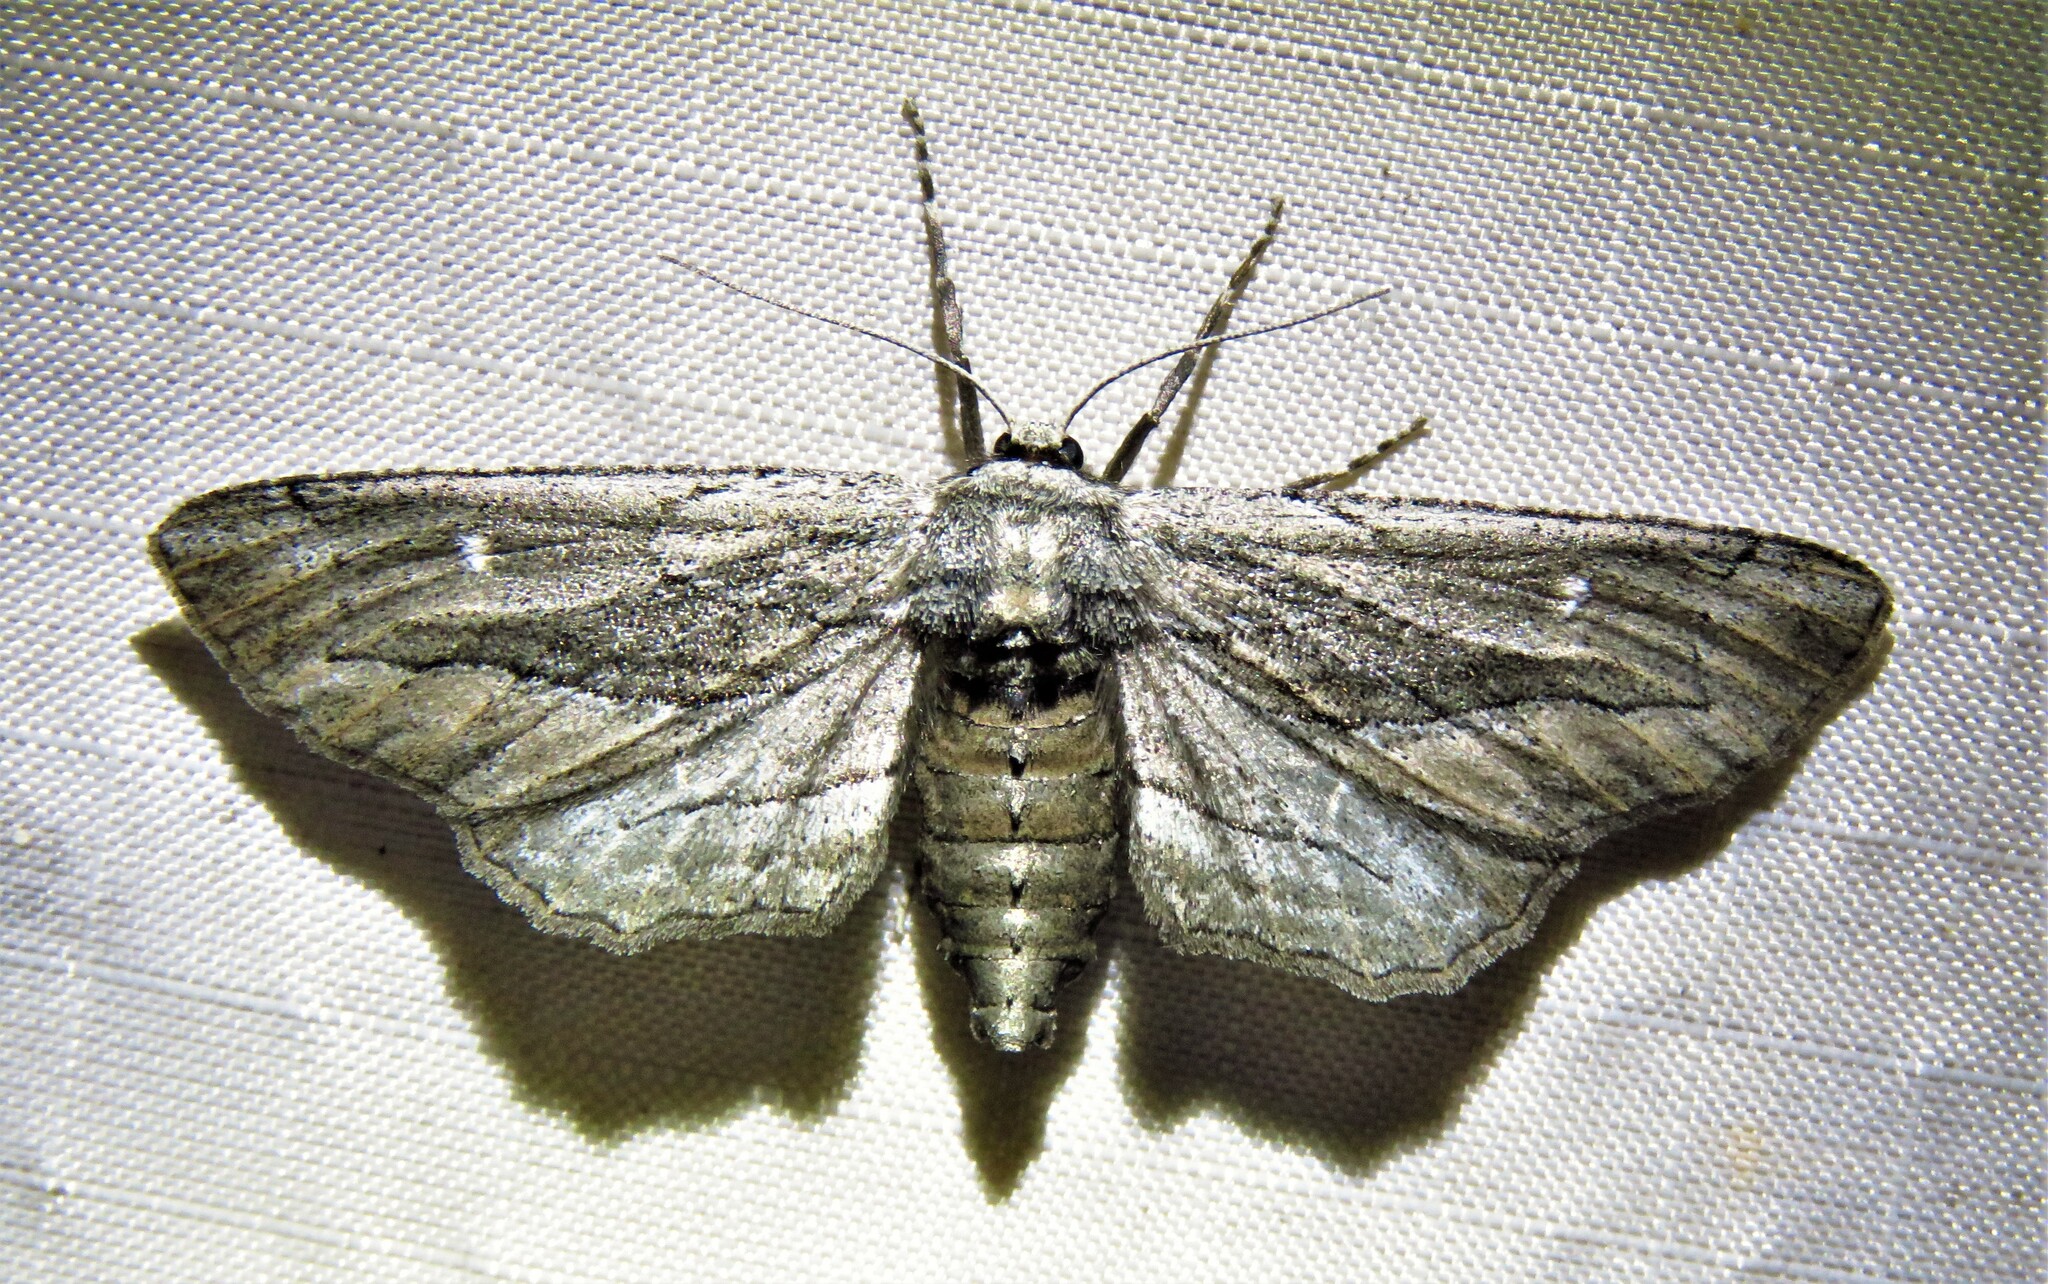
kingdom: Animalia
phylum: Arthropoda
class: Insecta
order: Lepidoptera
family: Geometridae
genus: Holochroa
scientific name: Holochroa dissociarius
